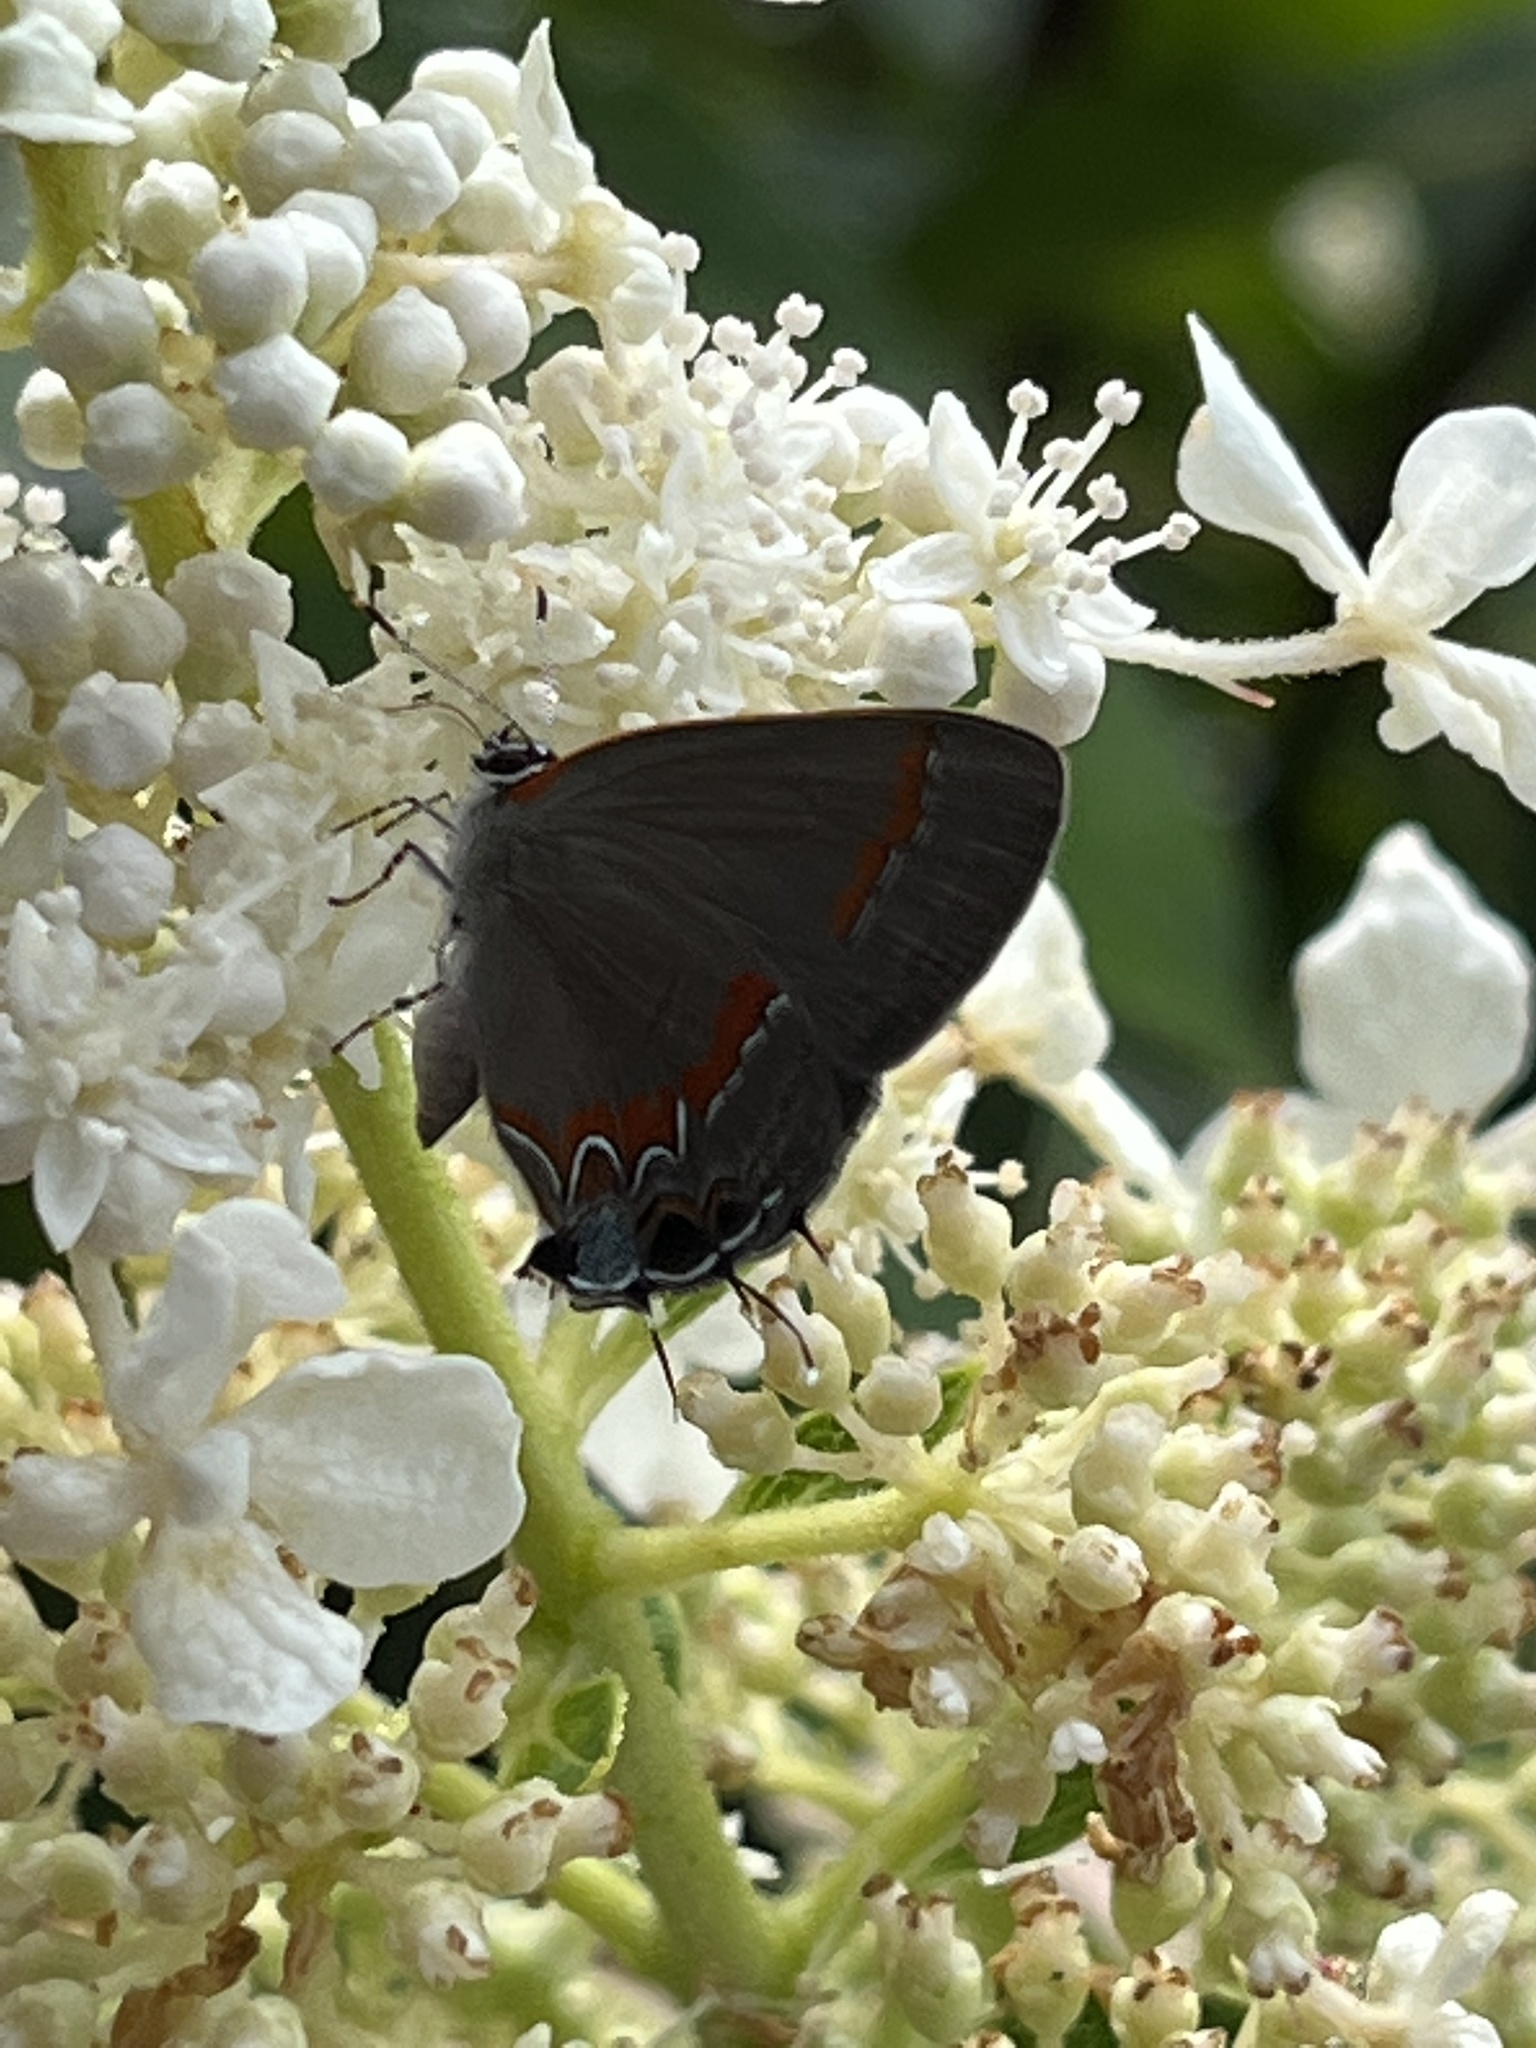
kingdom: Animalia
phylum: Arthropoda
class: Insecta
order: Lepidoptera
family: Lycaenidae
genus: Calycopis
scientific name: Calycopis cecrops
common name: Red-banded hairstreak
